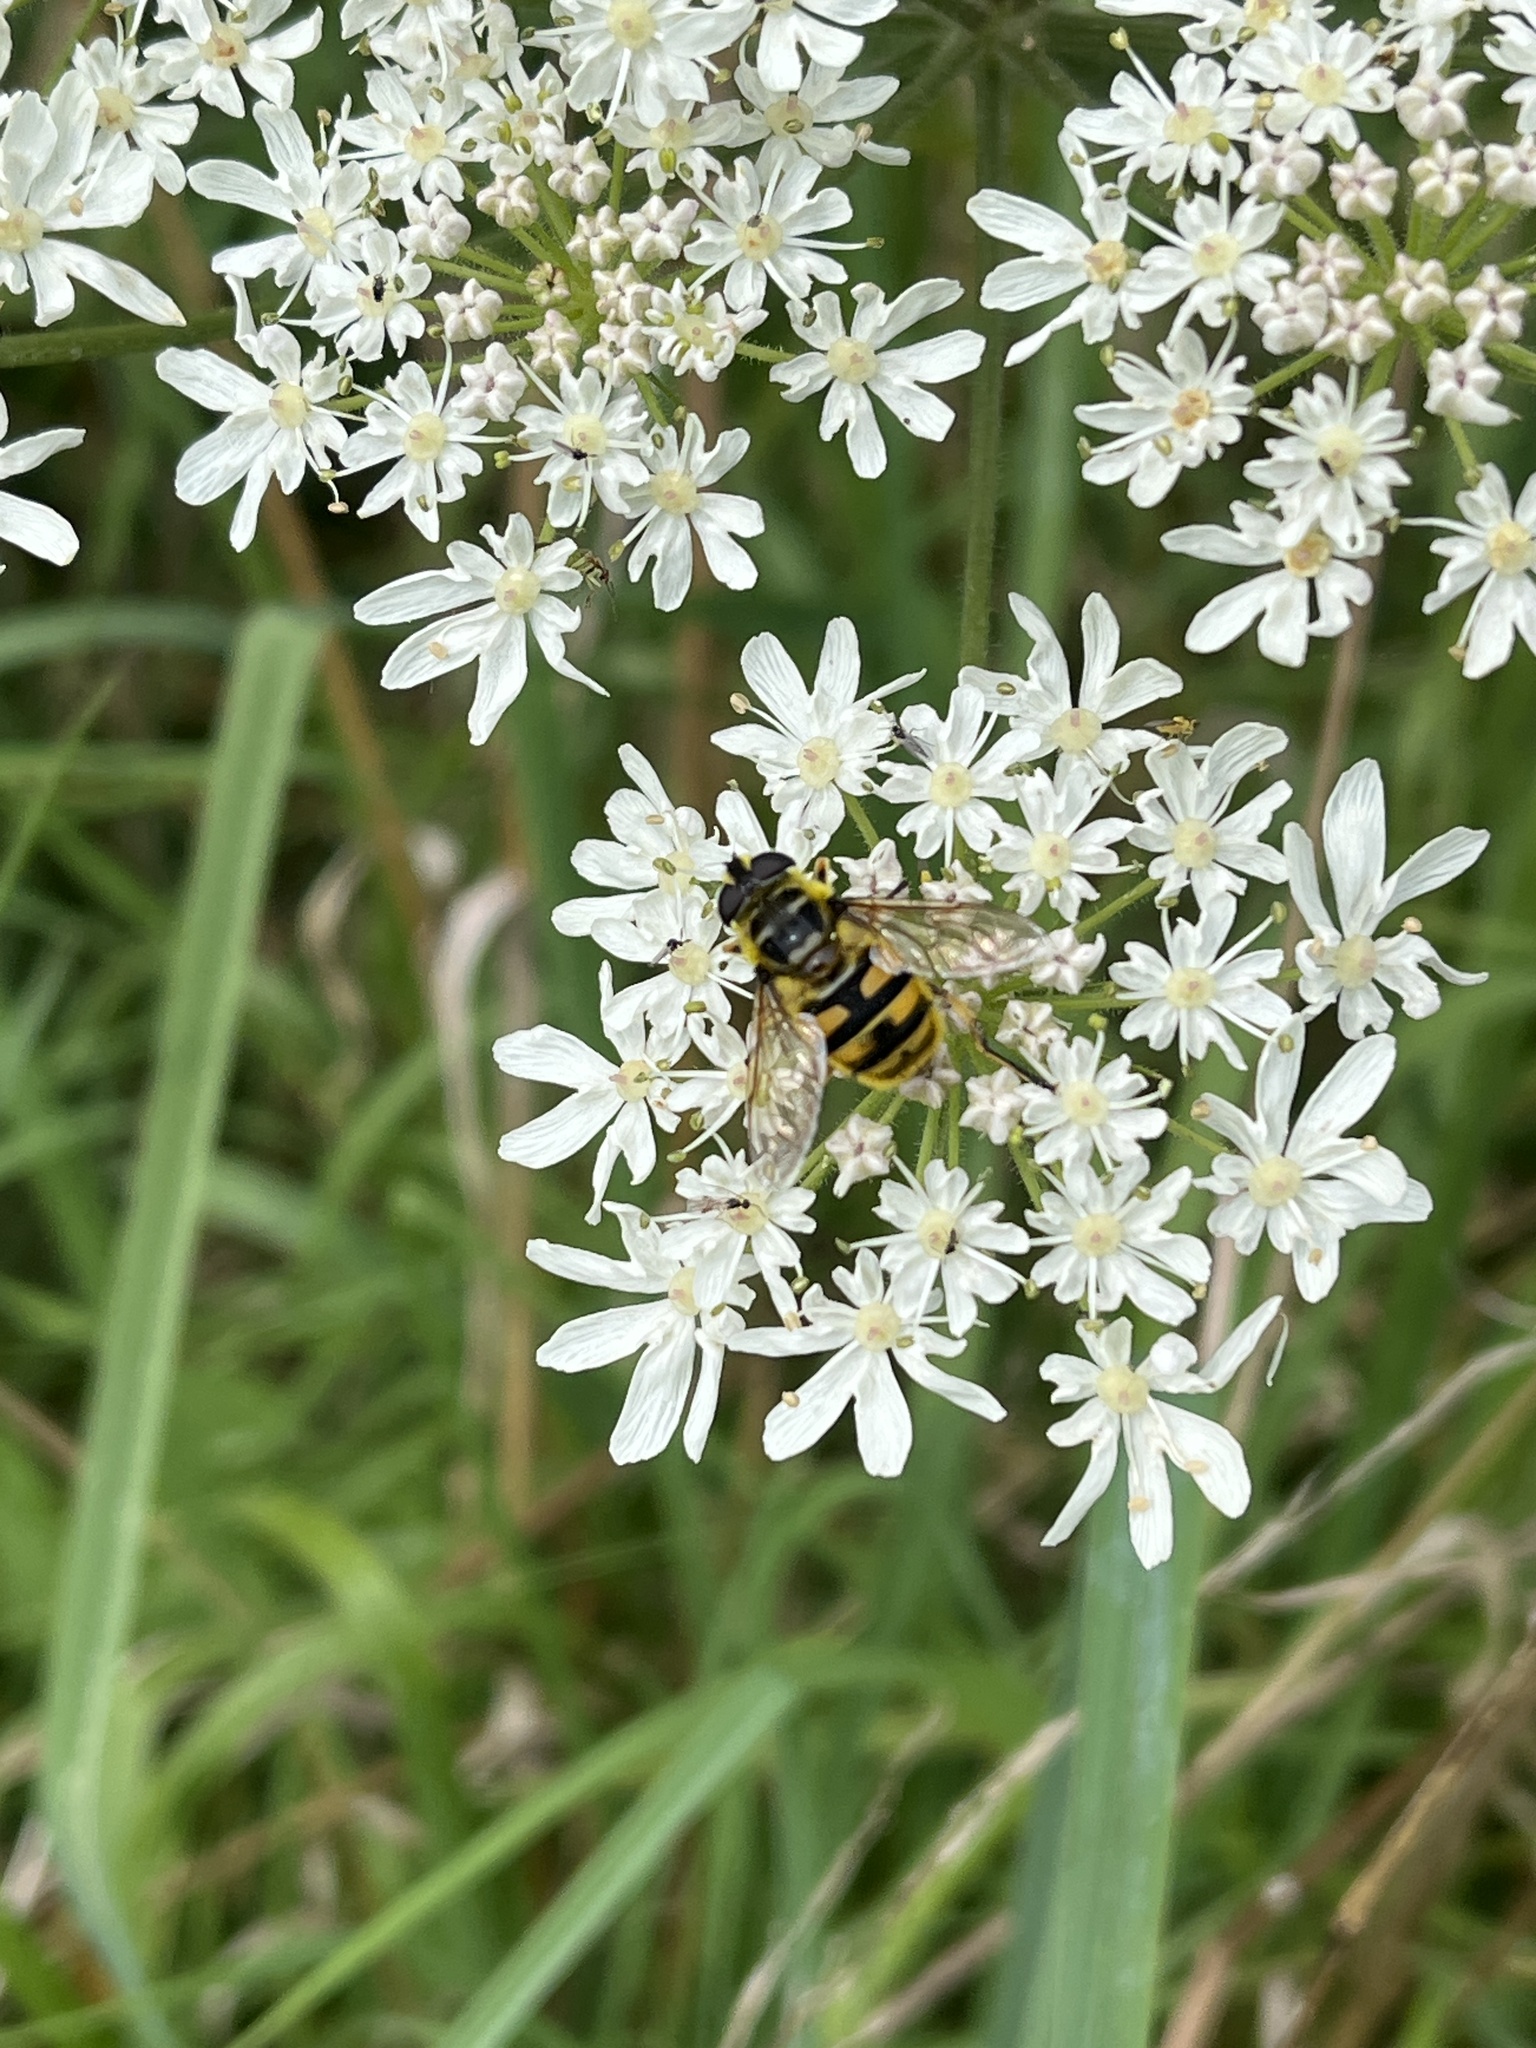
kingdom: Animalia
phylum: Arthropoda
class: Insecta
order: Diptera
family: Syrphidae
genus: Myathropa
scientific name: Myathropa florea
